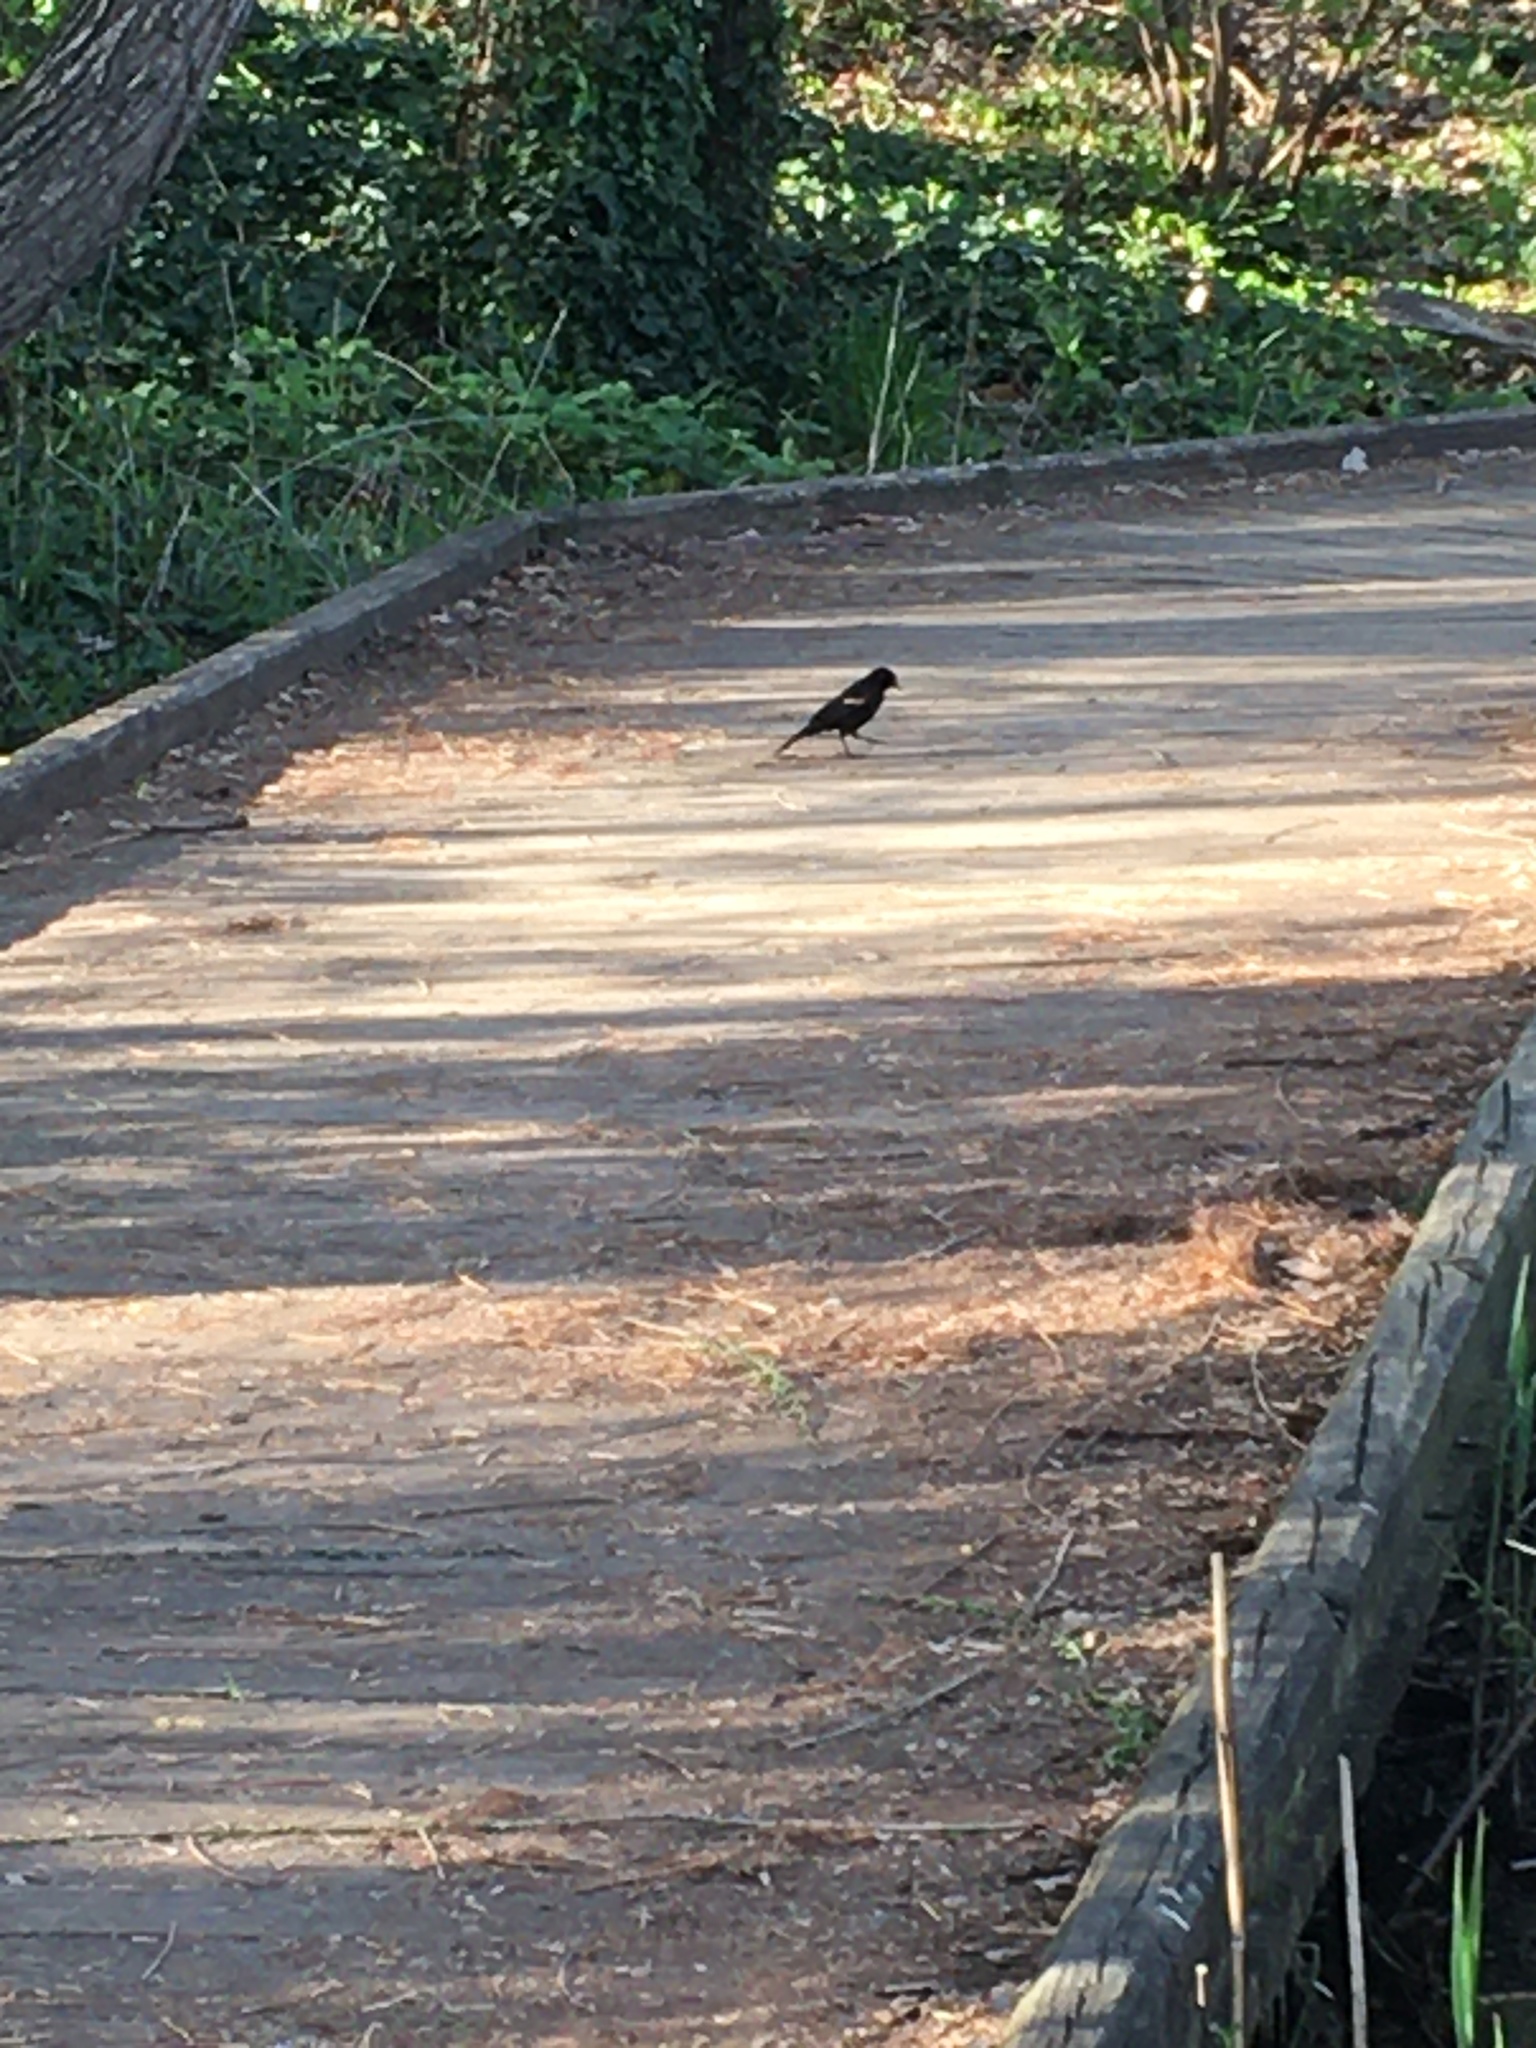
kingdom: Animalia
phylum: Chordata
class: Aves
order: Passeriformes
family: Icteridae
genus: Agelaius
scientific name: Agelaius phoeniceus
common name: Red-winged blackbird
